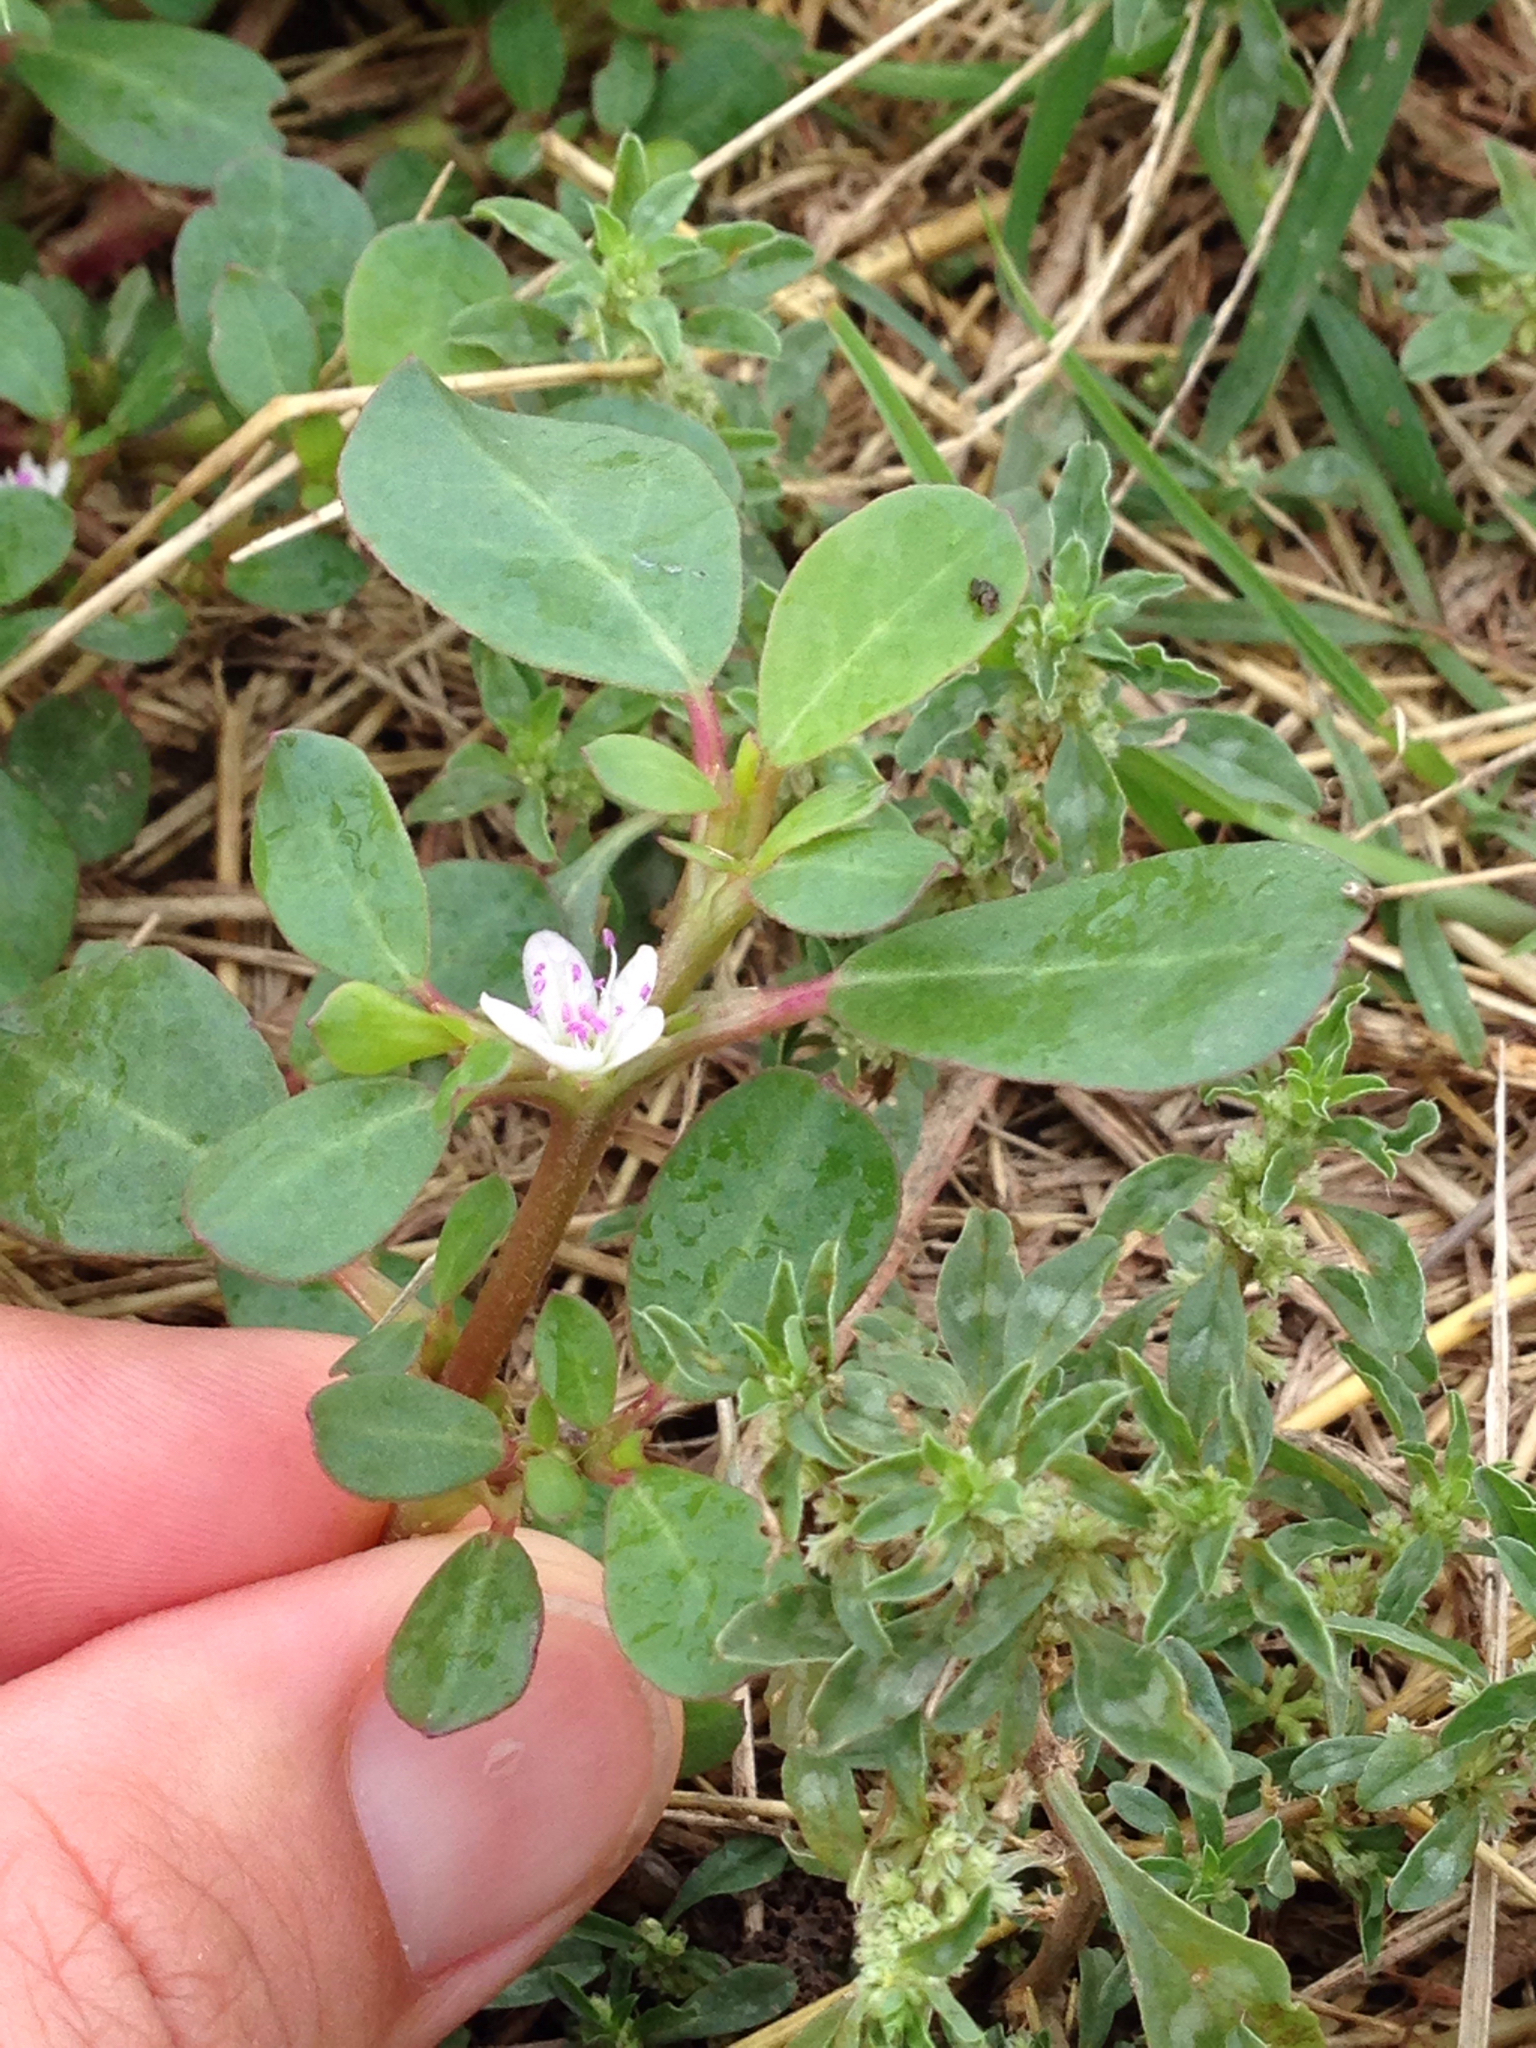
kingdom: Plantae
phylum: Tracheophyta
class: Magnoliopsida
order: Caryophyllales
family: Aizoaceae
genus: Trianthema
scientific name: Trianthema portulacastrum
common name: Desert horsepurslane
